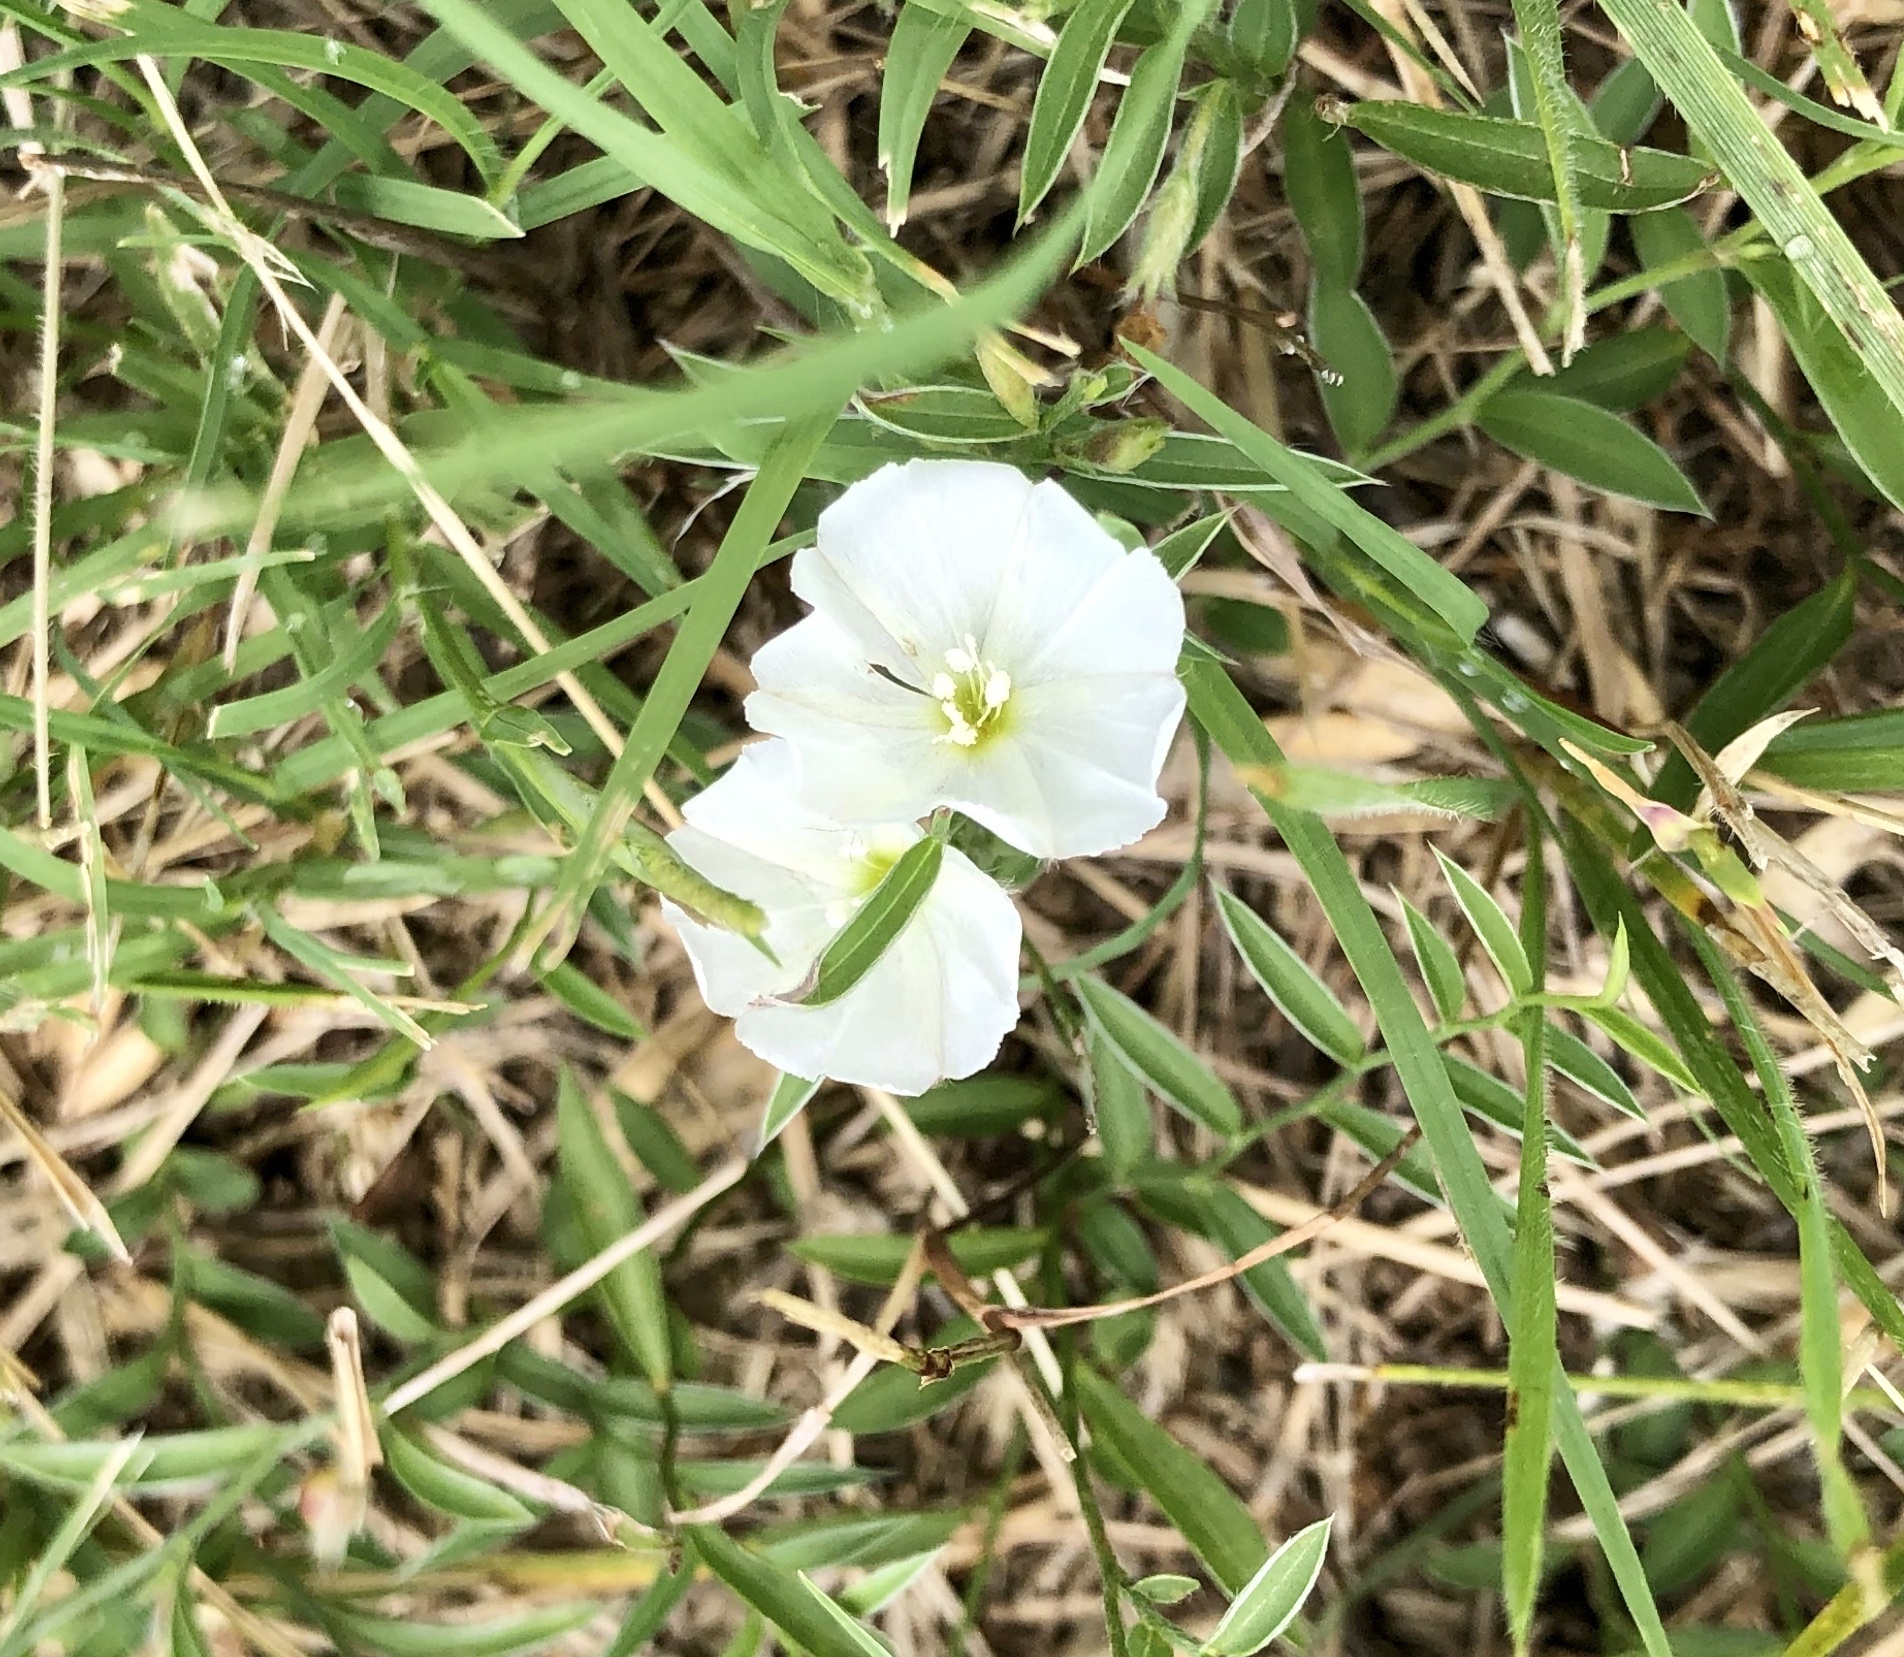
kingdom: Plantae
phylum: Tracheophyta
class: Magnoliopsida
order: Solanales
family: Convolvulaceae
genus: Evolvulus
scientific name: Evolvulus sericeus
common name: Blue dots
